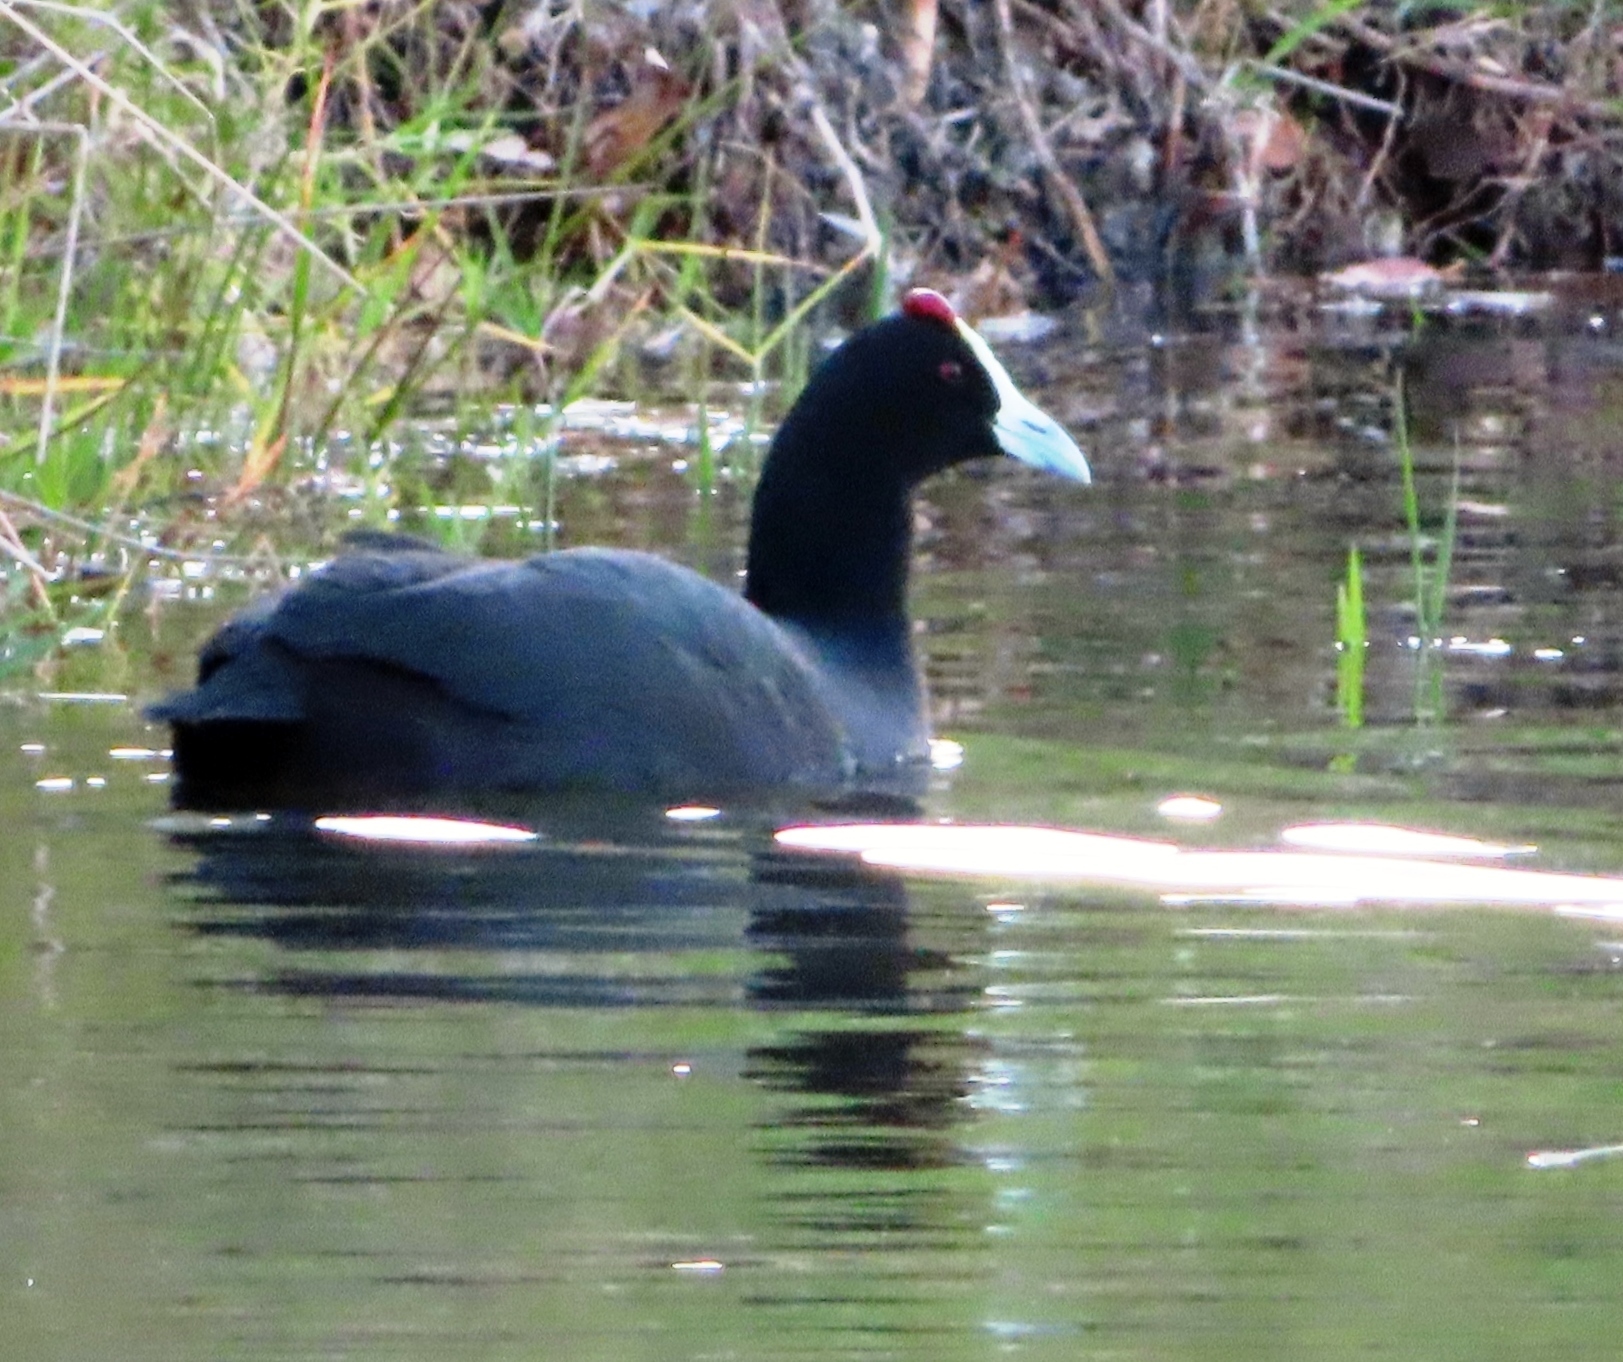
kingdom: Animalia
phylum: Chordata
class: Aves
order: Gruiformes
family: Rallidae
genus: Fulica
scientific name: Fulica cristata
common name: Red-knobbed coot
